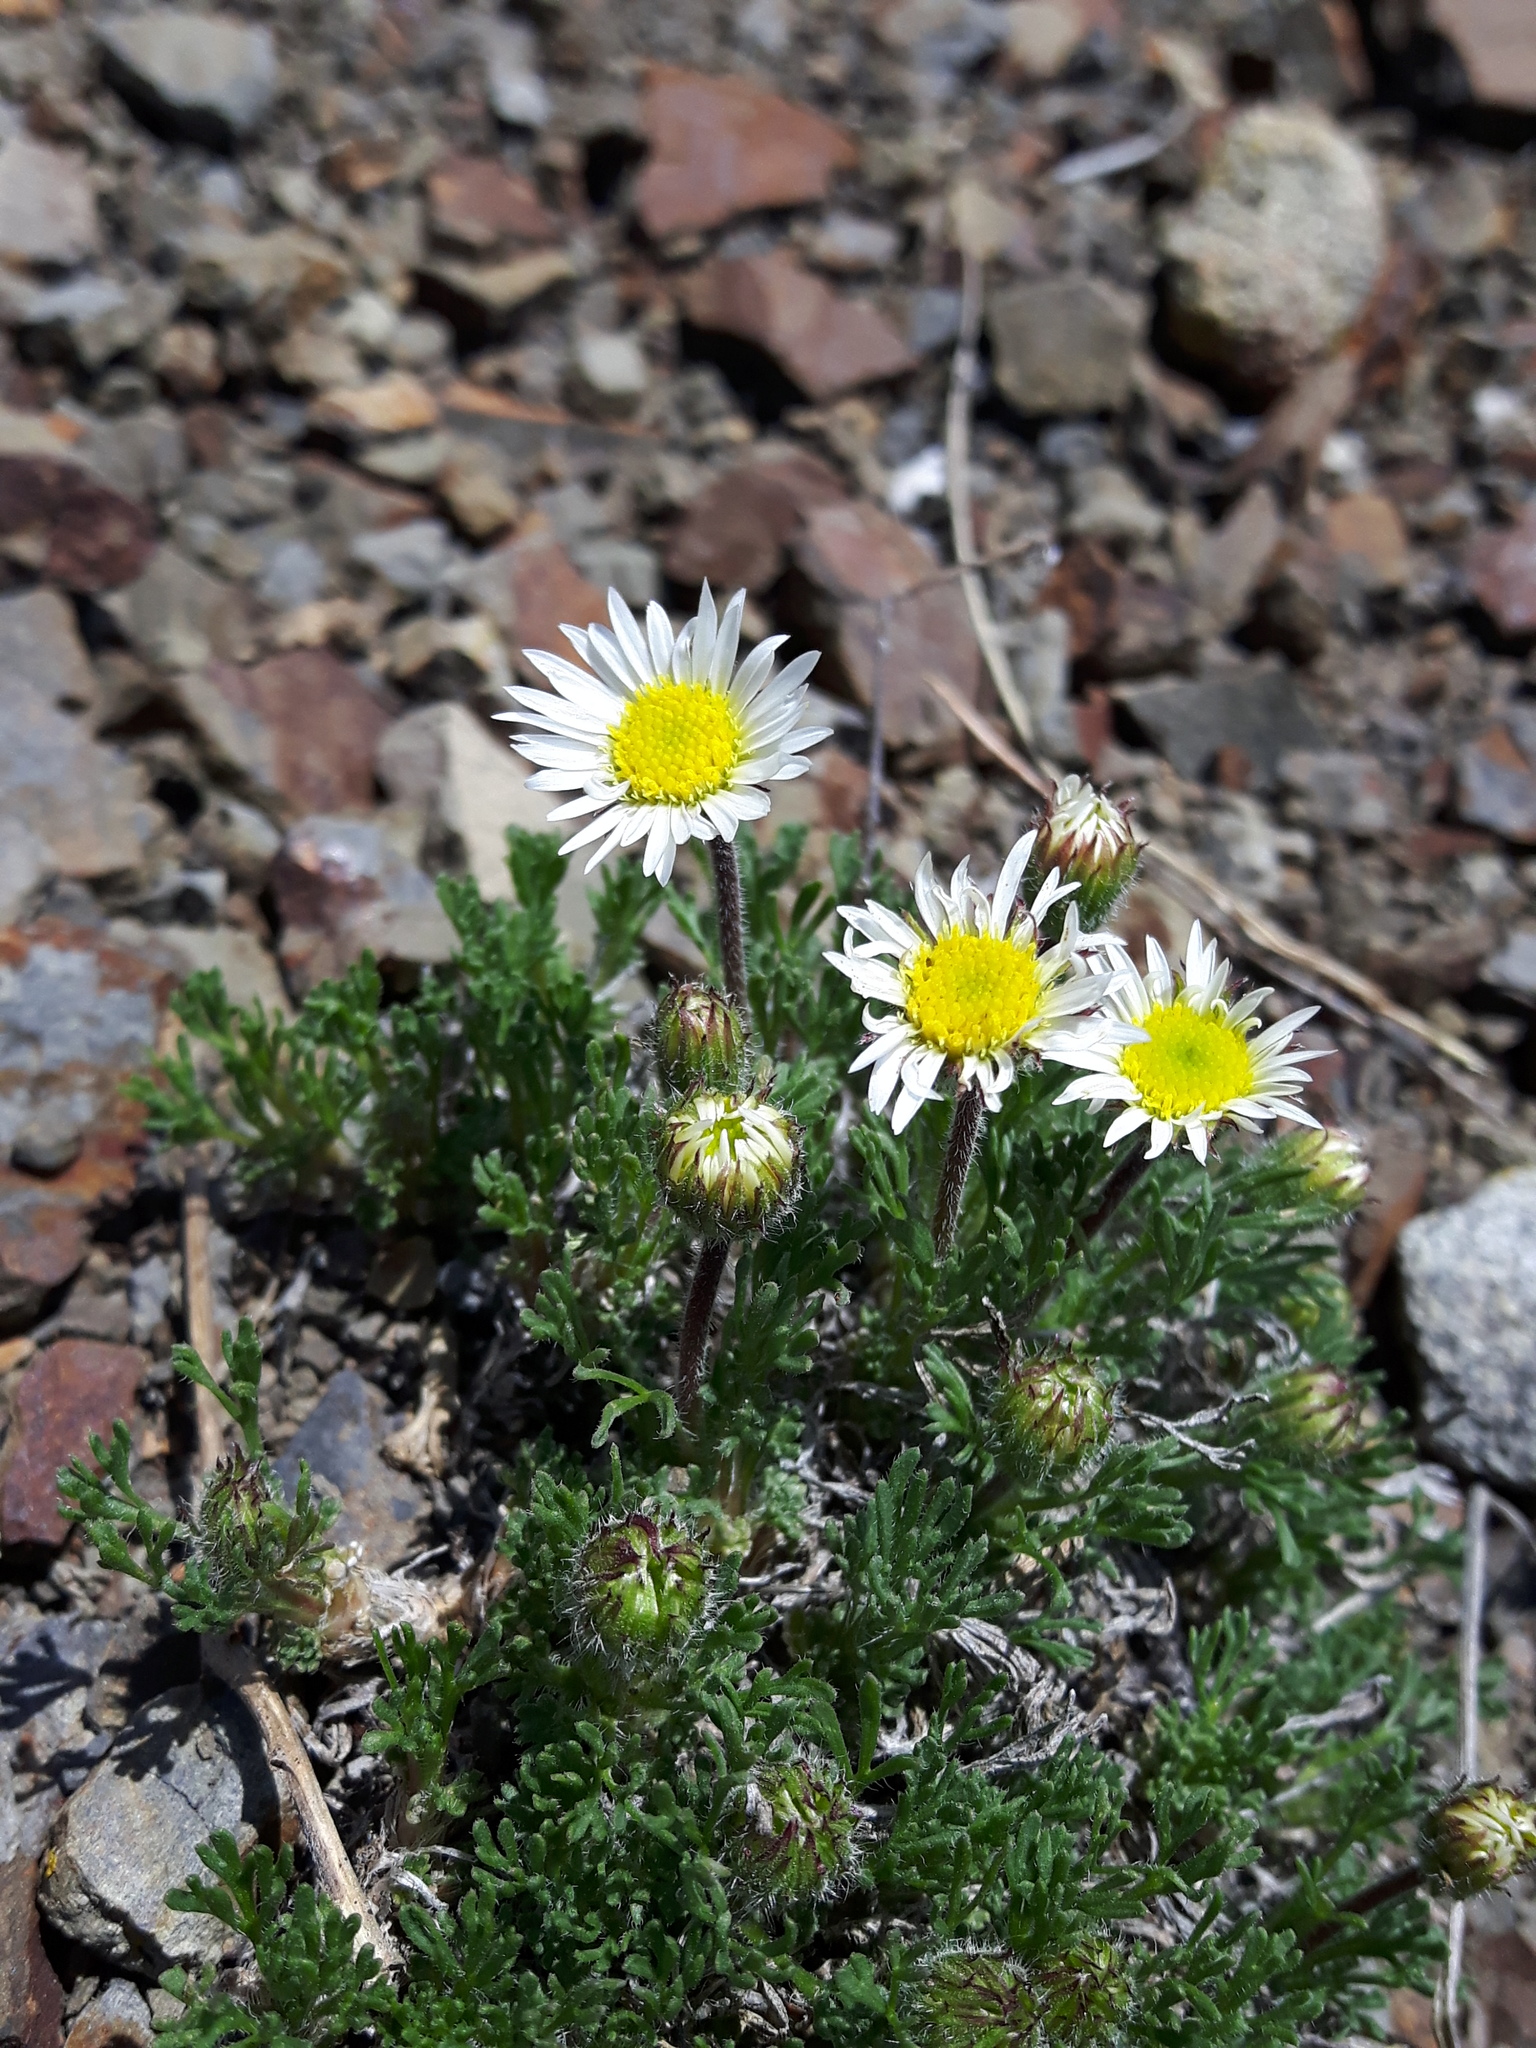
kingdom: Plantae
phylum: Tracheophyta
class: Magnoliopsida
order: Asterales
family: Asteraceae
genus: Erigeron
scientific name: Erigeron compositus
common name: Dwarf mountain fleabane
